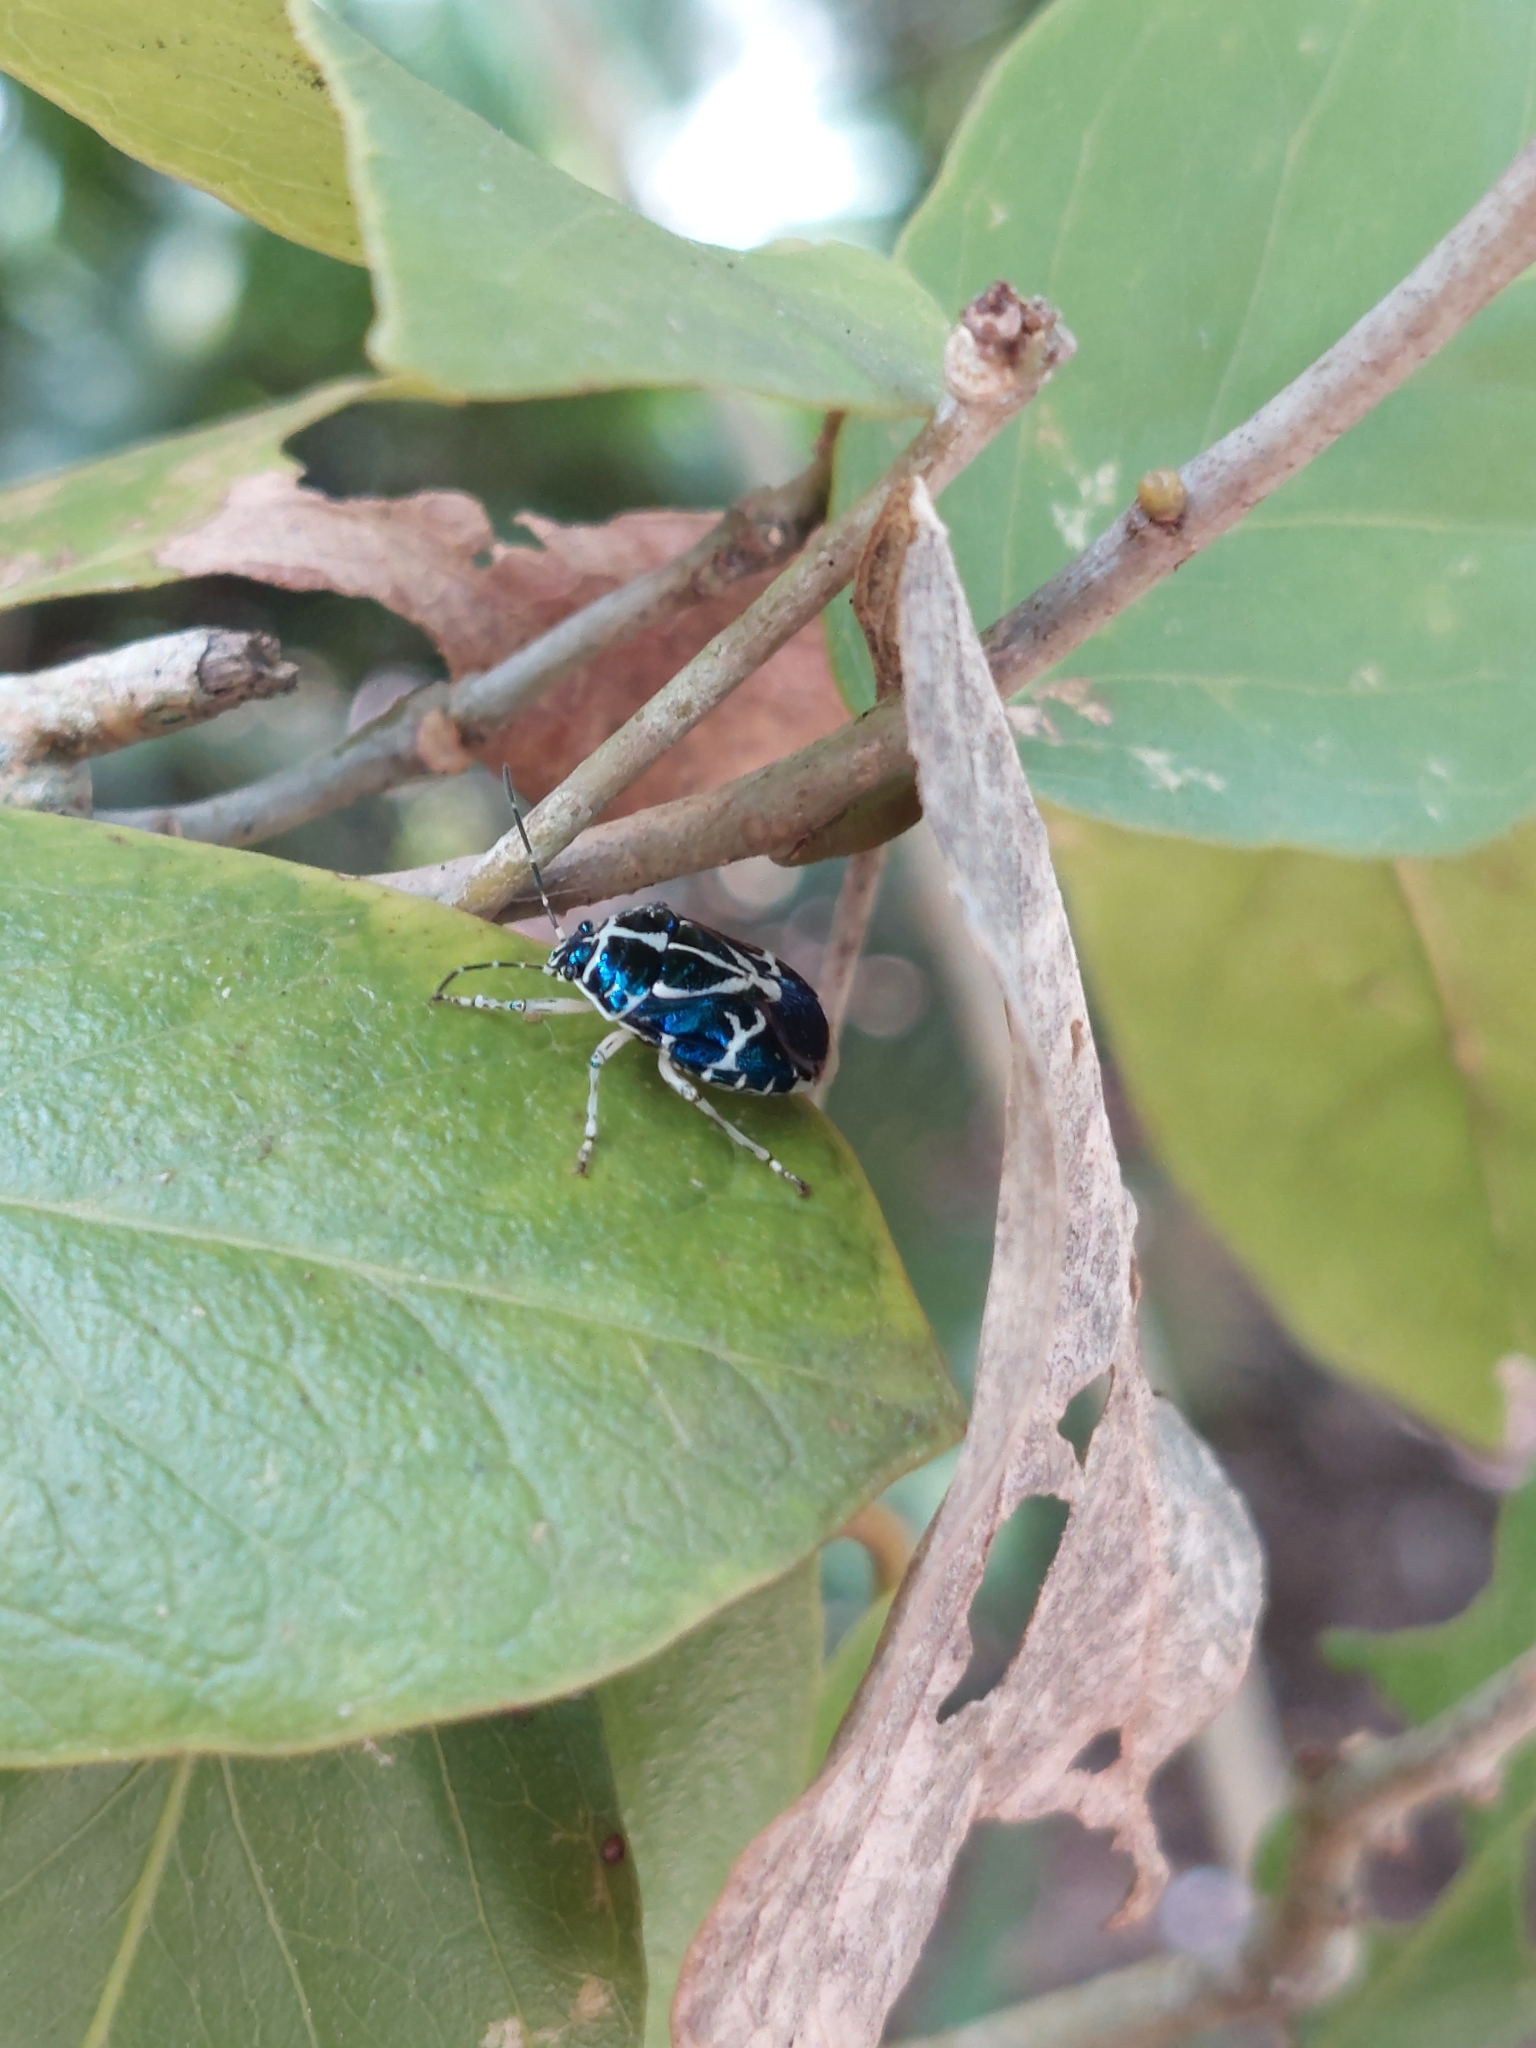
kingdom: Animalia
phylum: Arthropoda
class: Insecta
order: Hemiptera
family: Pentatomidae
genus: Murgantia
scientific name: Murgantia violascens
